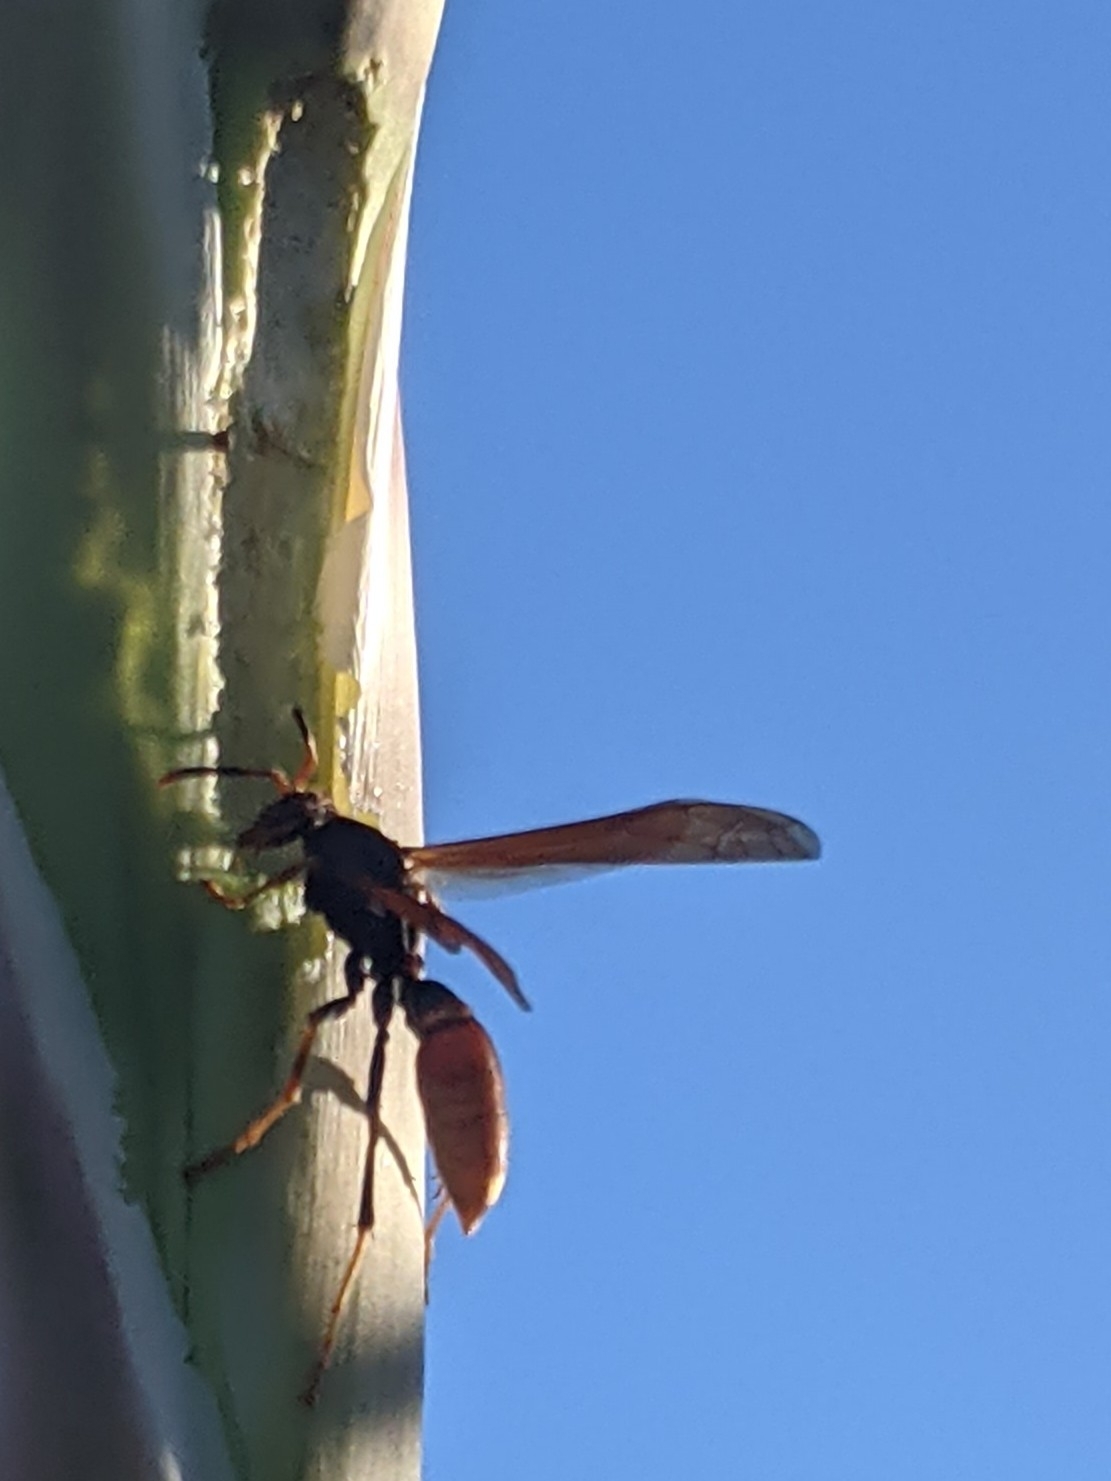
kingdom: Animalia
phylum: Arthropoda
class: Insecta
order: Hymenoptera
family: Eumenidae
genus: Polistes
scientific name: Polistes comanchus
